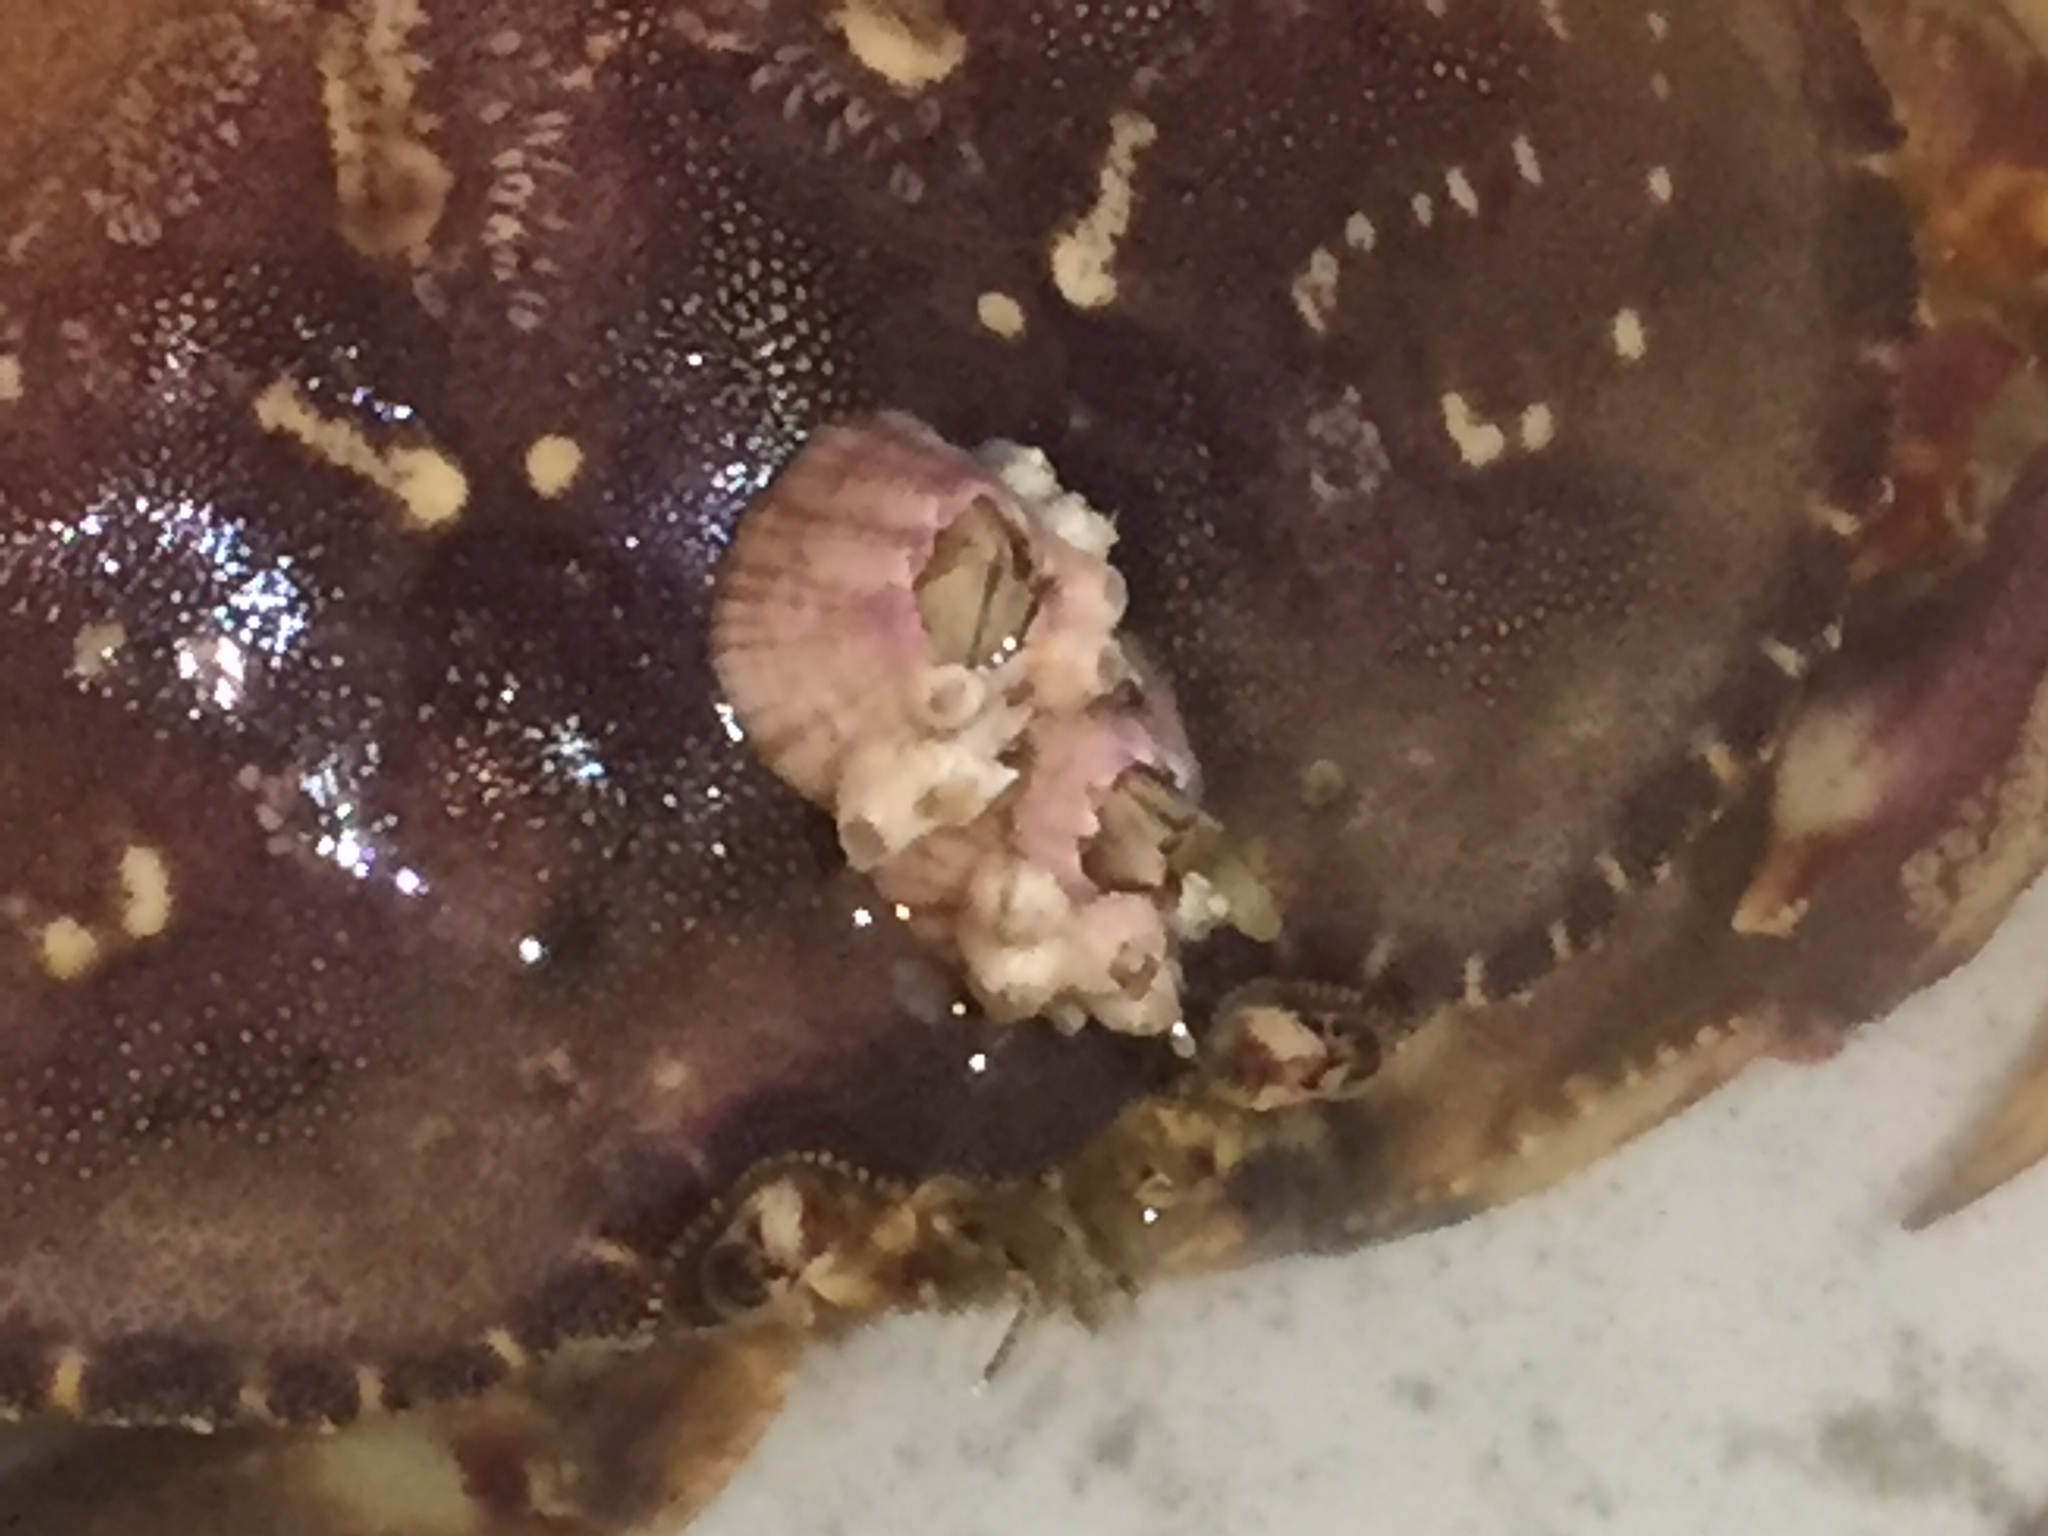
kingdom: Animalia
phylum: Arthropoda
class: Maxillopoda
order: Sessilia
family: Balanidae
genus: Paraconcavus
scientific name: Paraconcavus pacificus
